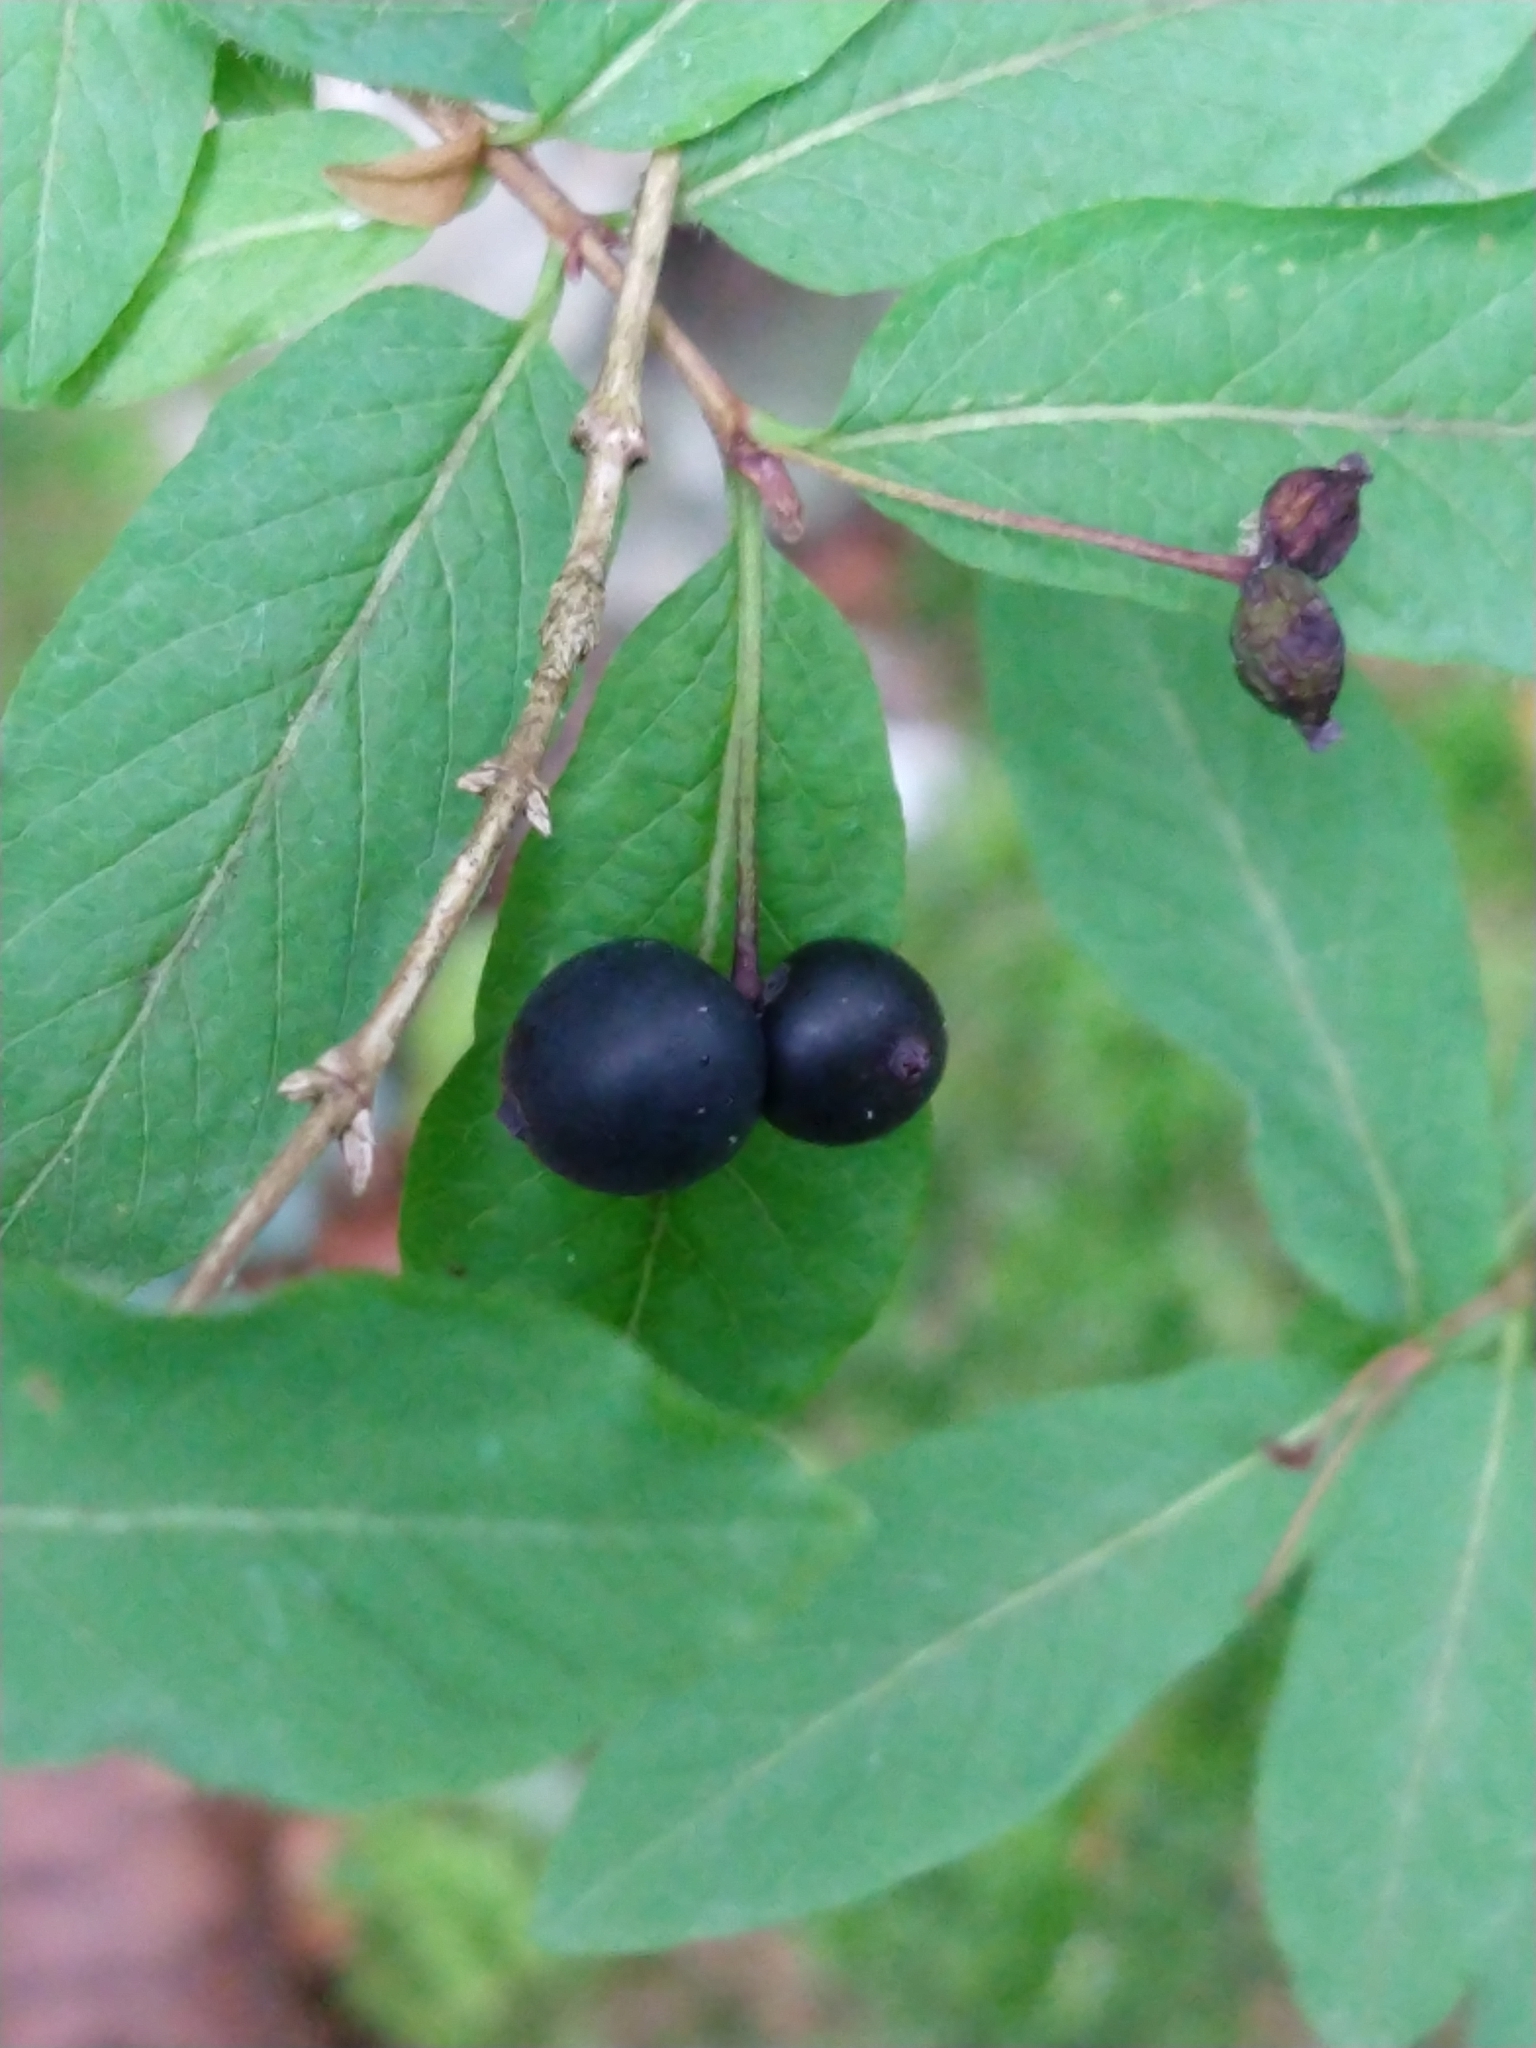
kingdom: Plantae
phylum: Tracheophyta
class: Magnoliopsida
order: Dipsacales
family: Caprifoliaceae
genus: Lonicera
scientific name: Lonicera nigra
